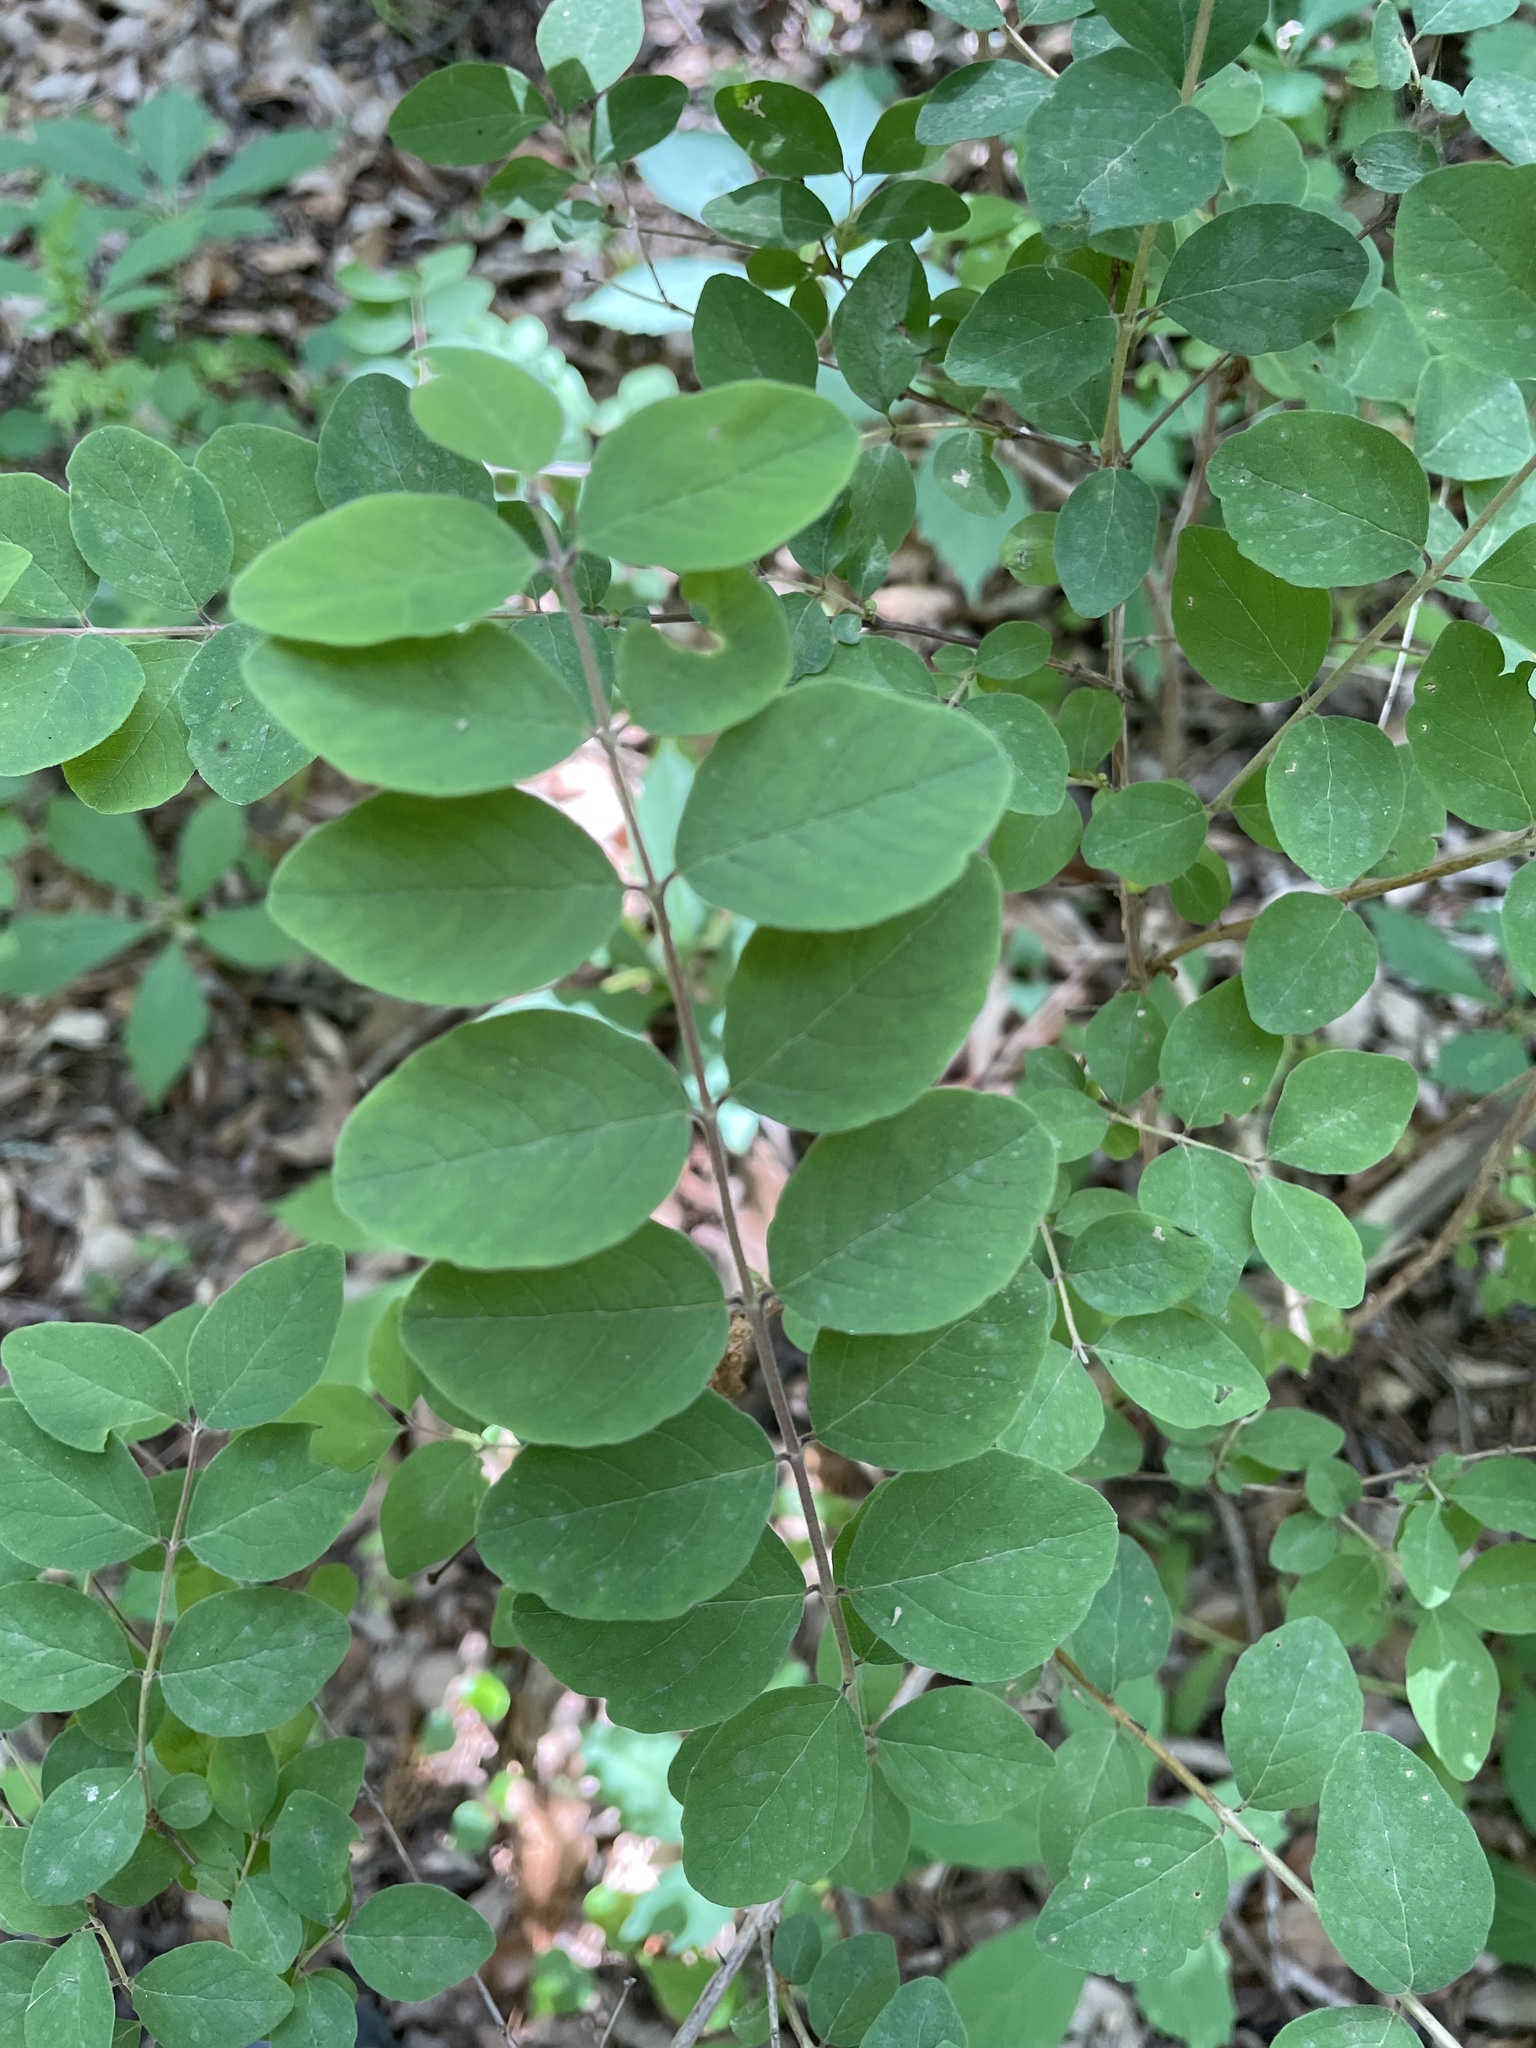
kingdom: Plantae
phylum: Tracheophyta
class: Magnoliopsida
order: Dipsacales
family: Caprifoliaceae
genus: Symphoricarpos
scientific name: Symphoricarpos orbiculatus
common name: Coralberry
